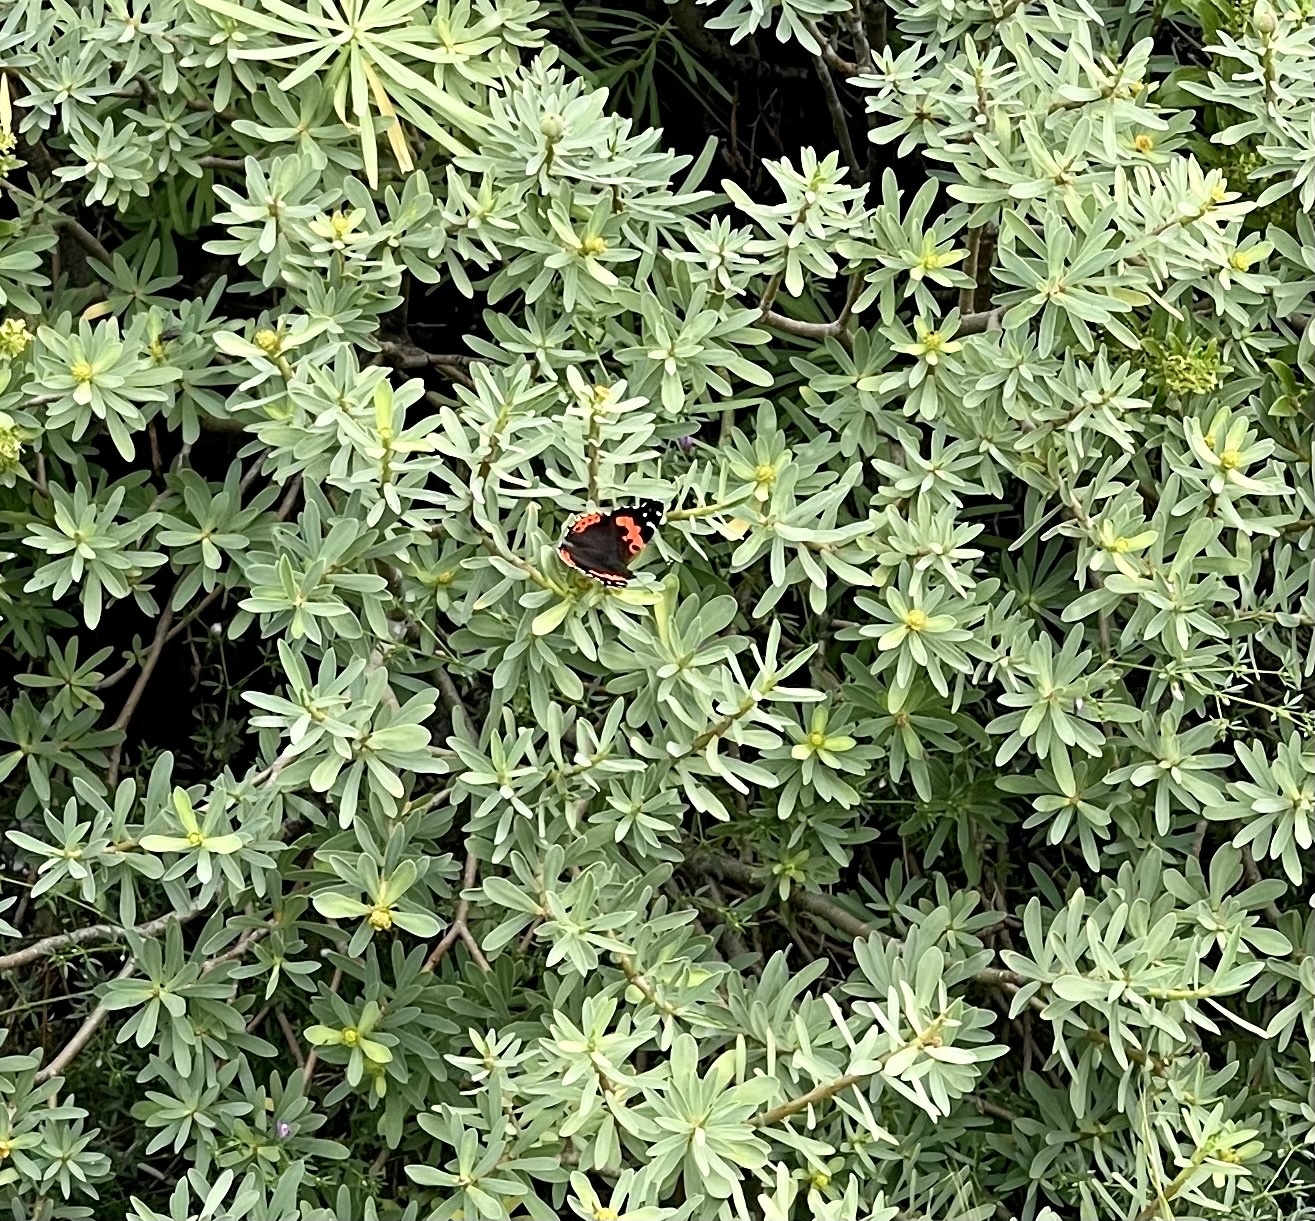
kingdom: Animalia
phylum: Arthropoda
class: Insecta
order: Lepidoptera
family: Nymphalidae
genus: Vanessa
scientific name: Vanessa vulcania
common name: Canary red admiral
